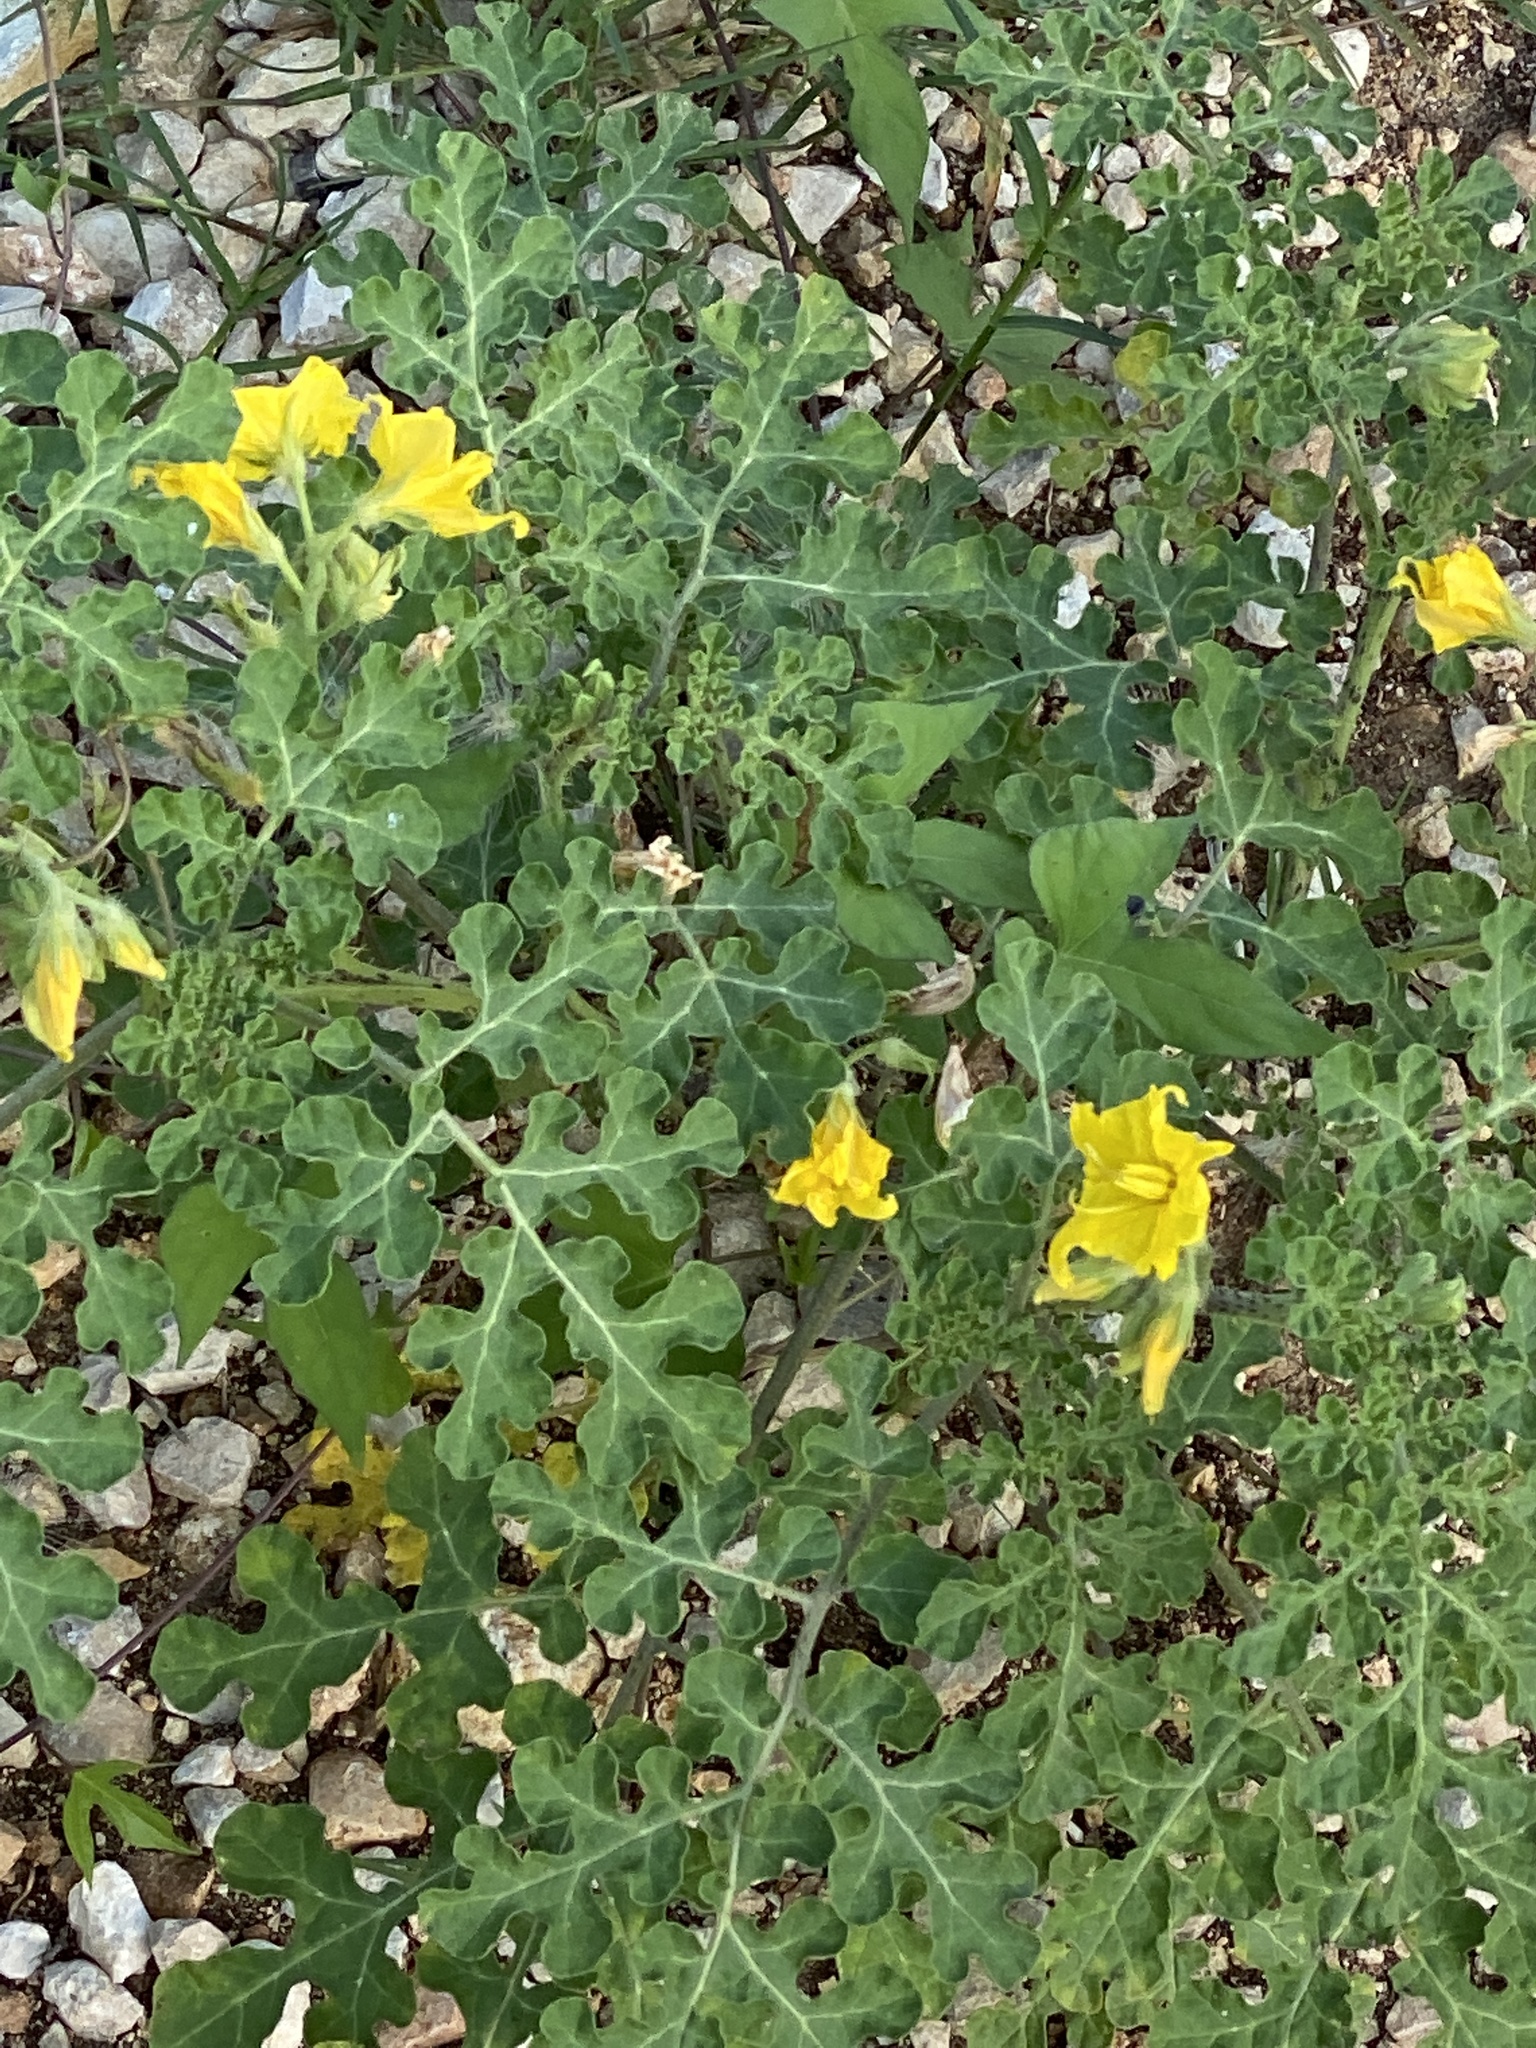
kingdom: Plantae
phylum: Tracheophyta
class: Magnoliopsida
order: Solanales
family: Solanaceae
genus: Solanum
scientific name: Solanum angustifolium
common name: Buffalobur nightshade
